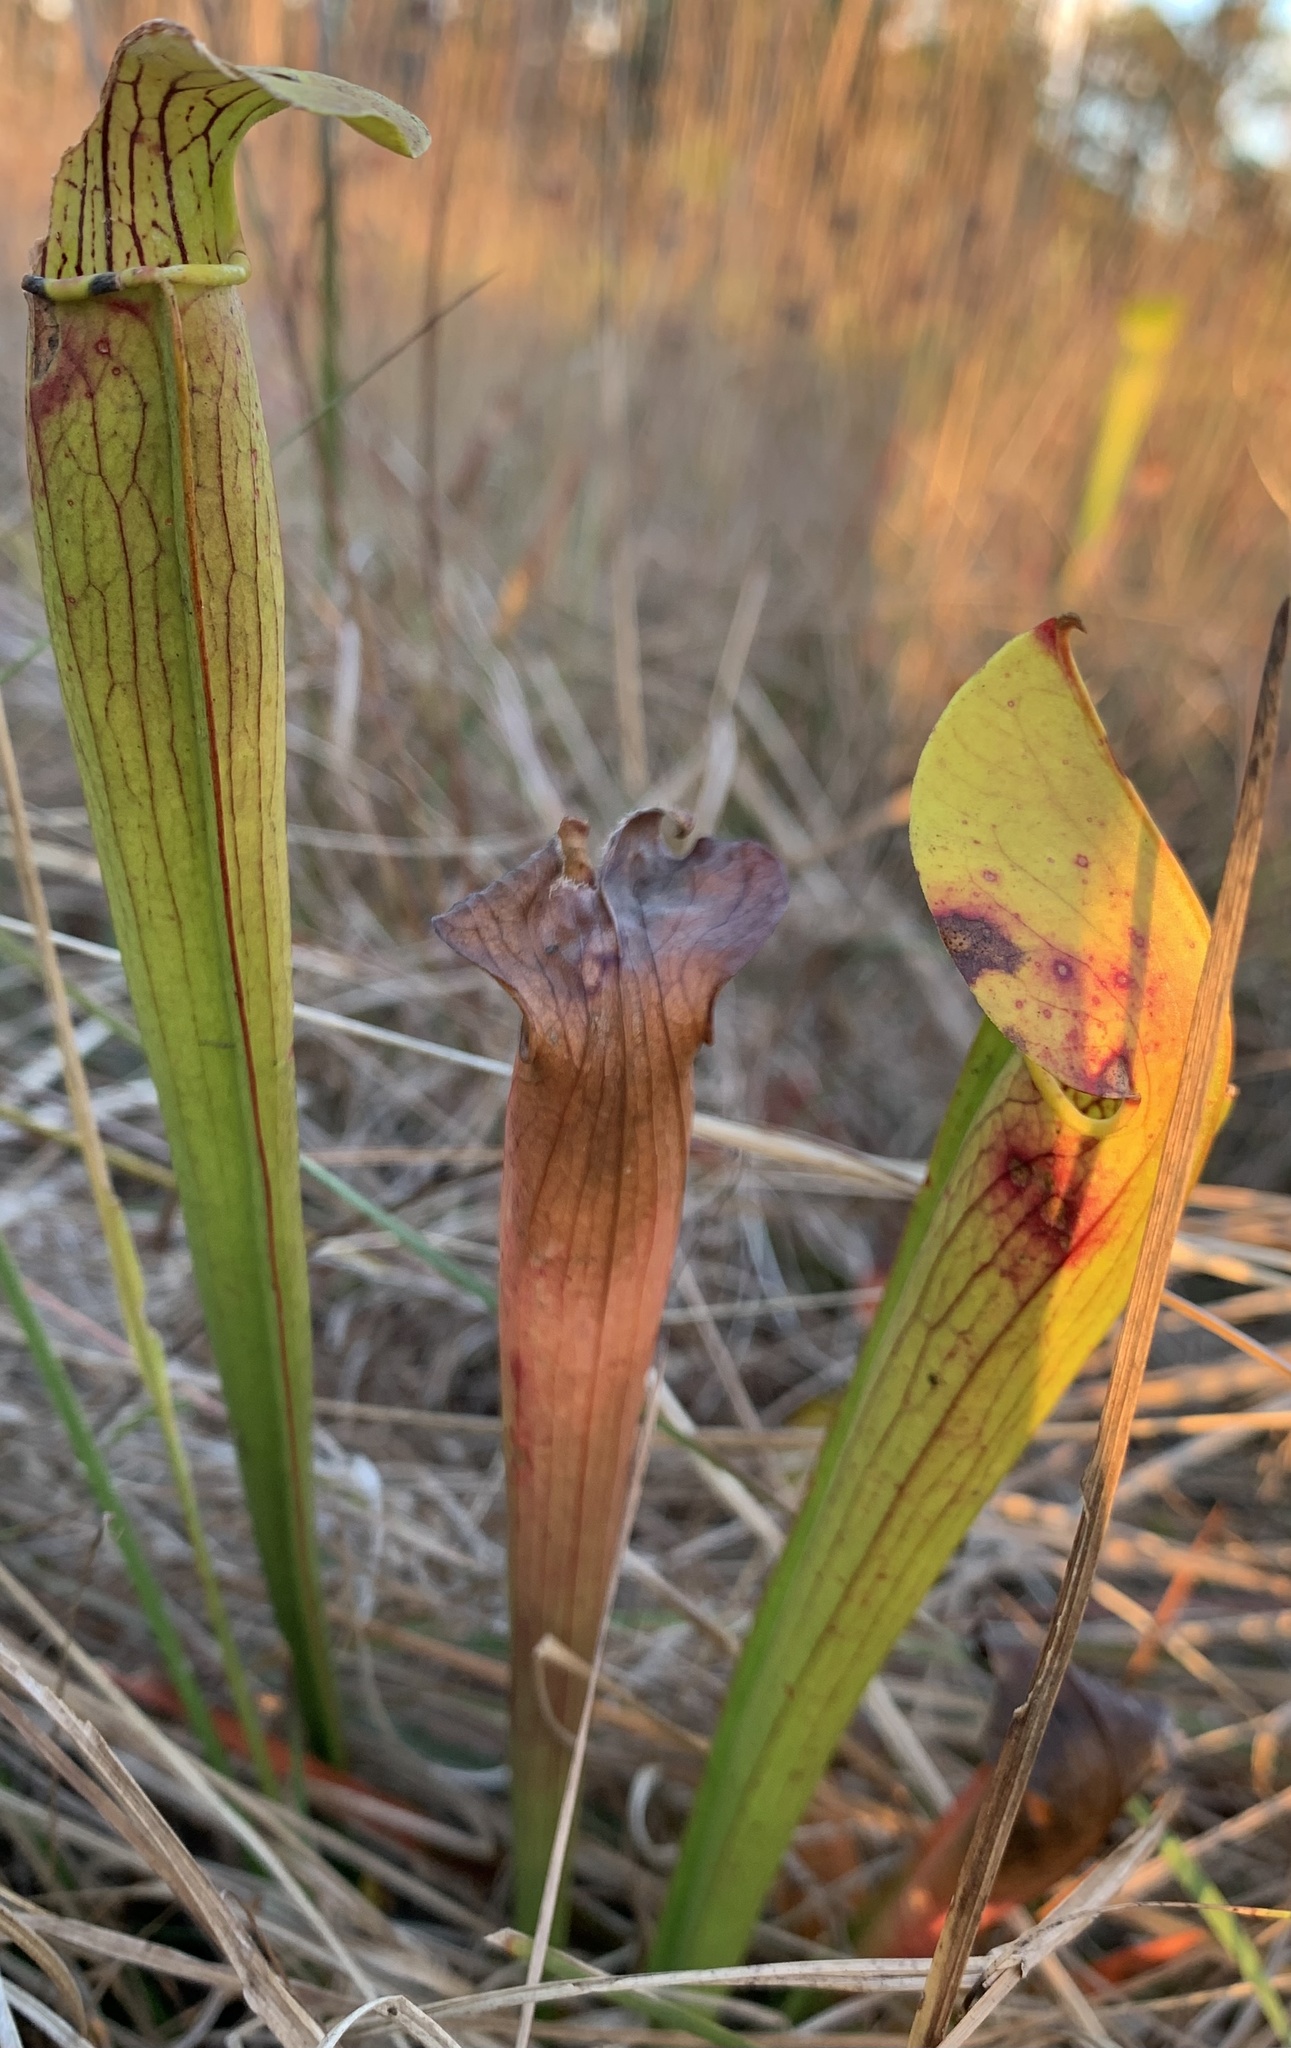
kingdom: Plantae
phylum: Tracheophyta
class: Magnoliopsida
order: Ericales
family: Sarraceniaceae
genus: Sarracenia
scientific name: Sarracenia alata
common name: Yellow trumpets
